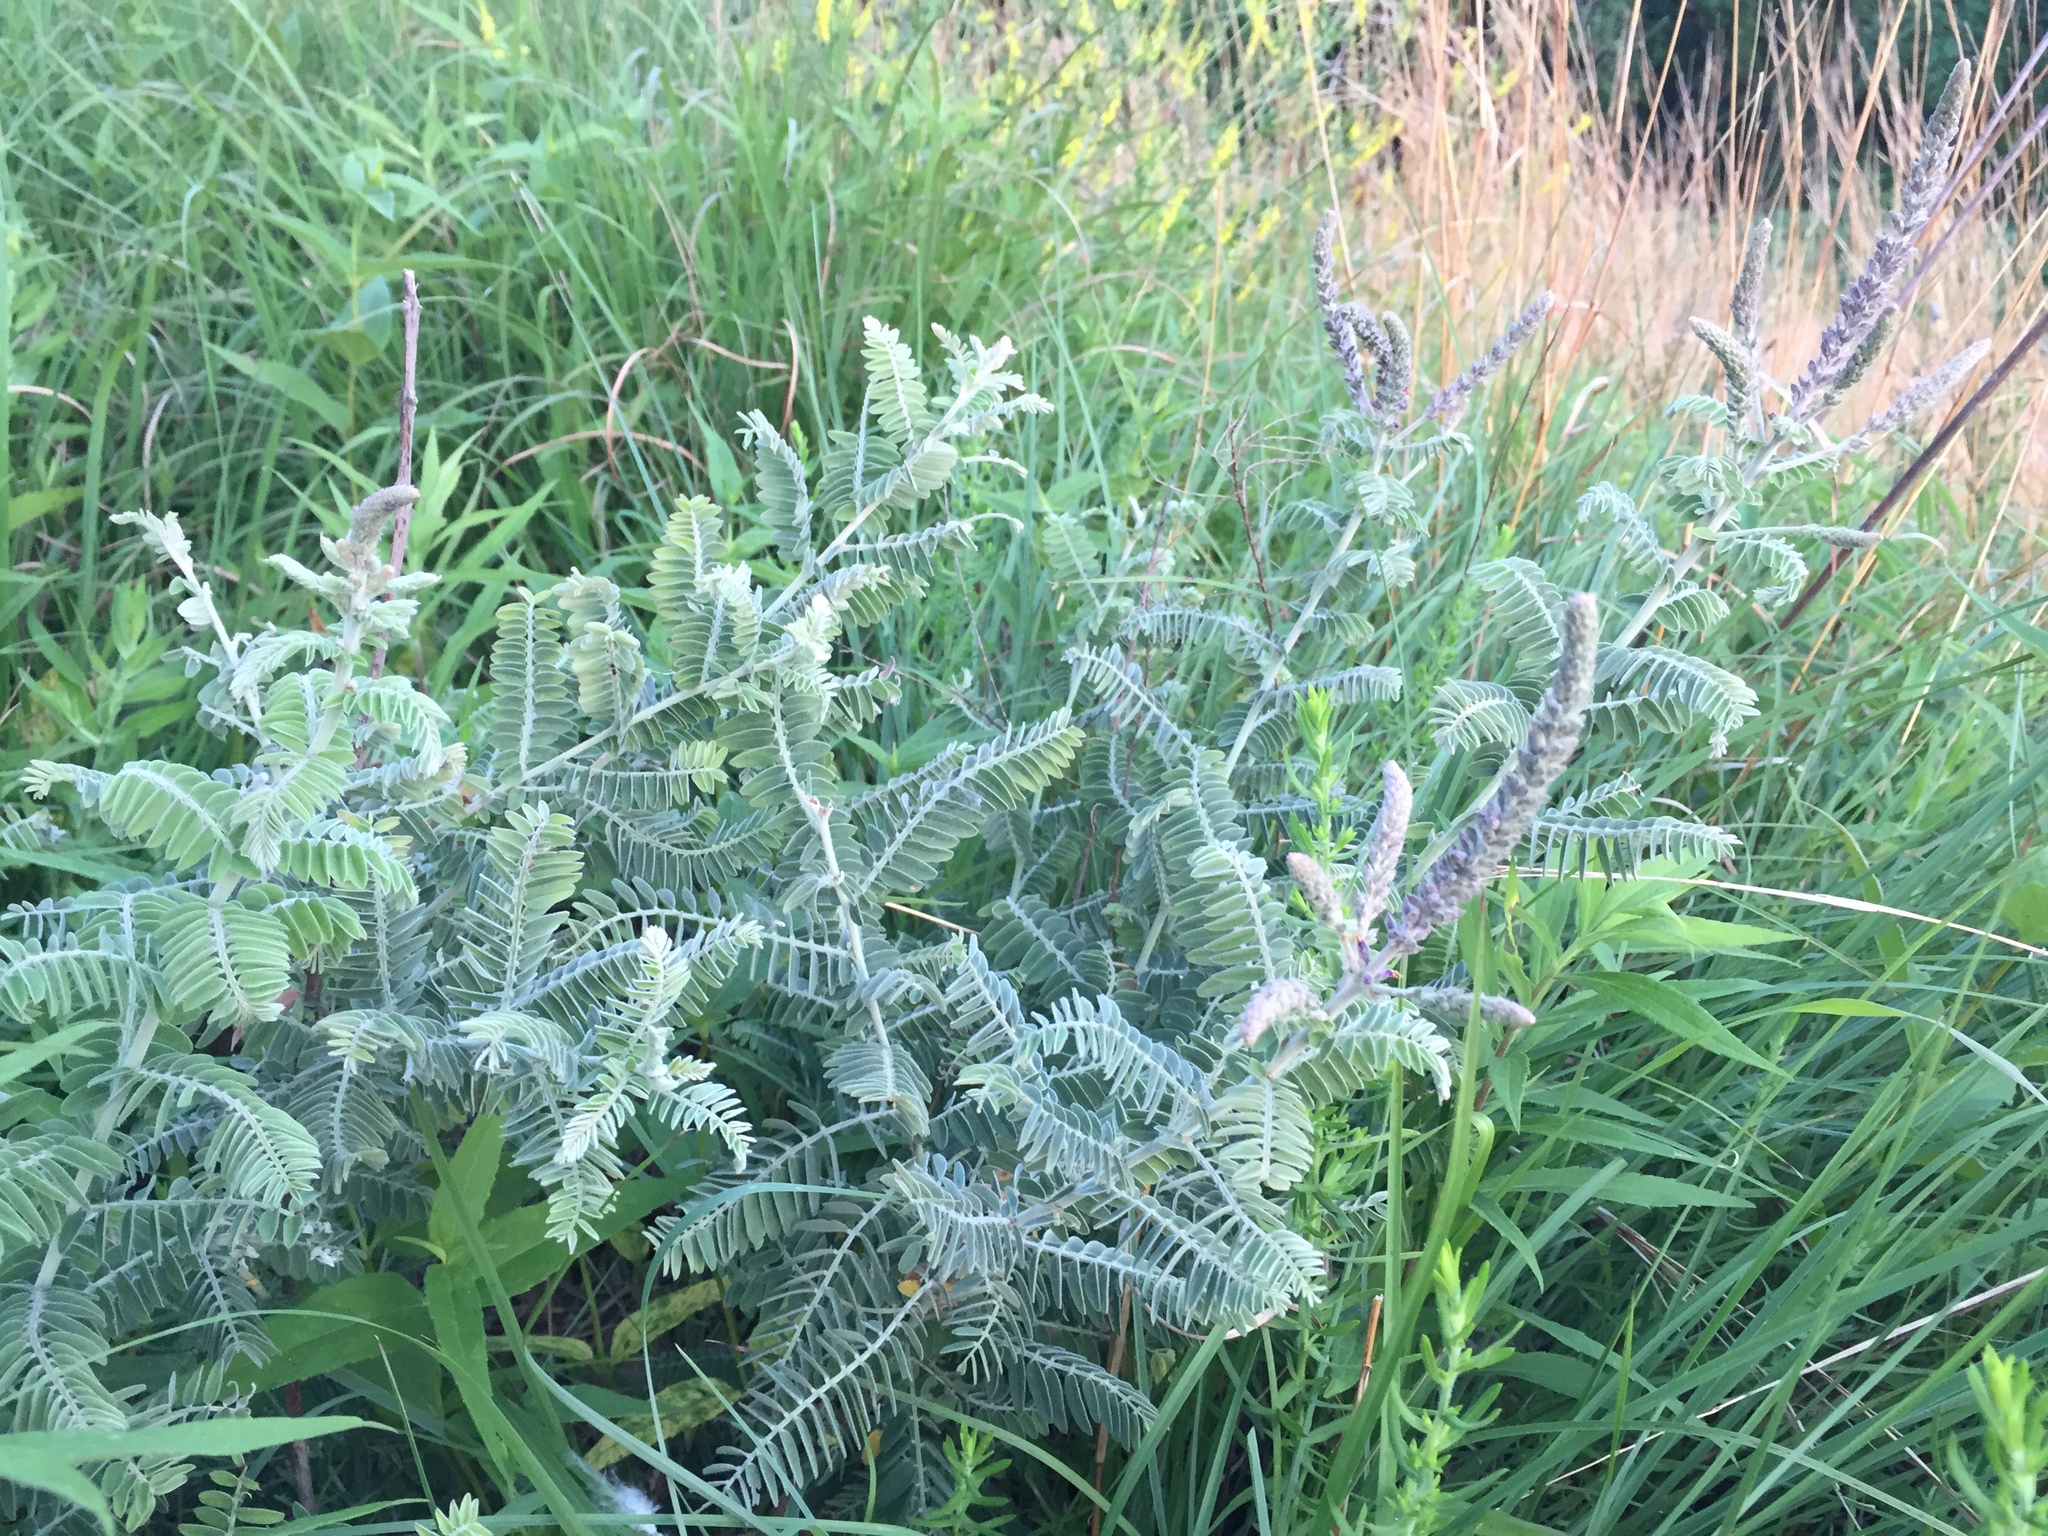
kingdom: Plantae
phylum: Tracheophyta
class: Magnoliopsida
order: Fabales
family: Fabaceae
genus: Amorpha
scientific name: Amorpha canescens
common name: Leadplant
